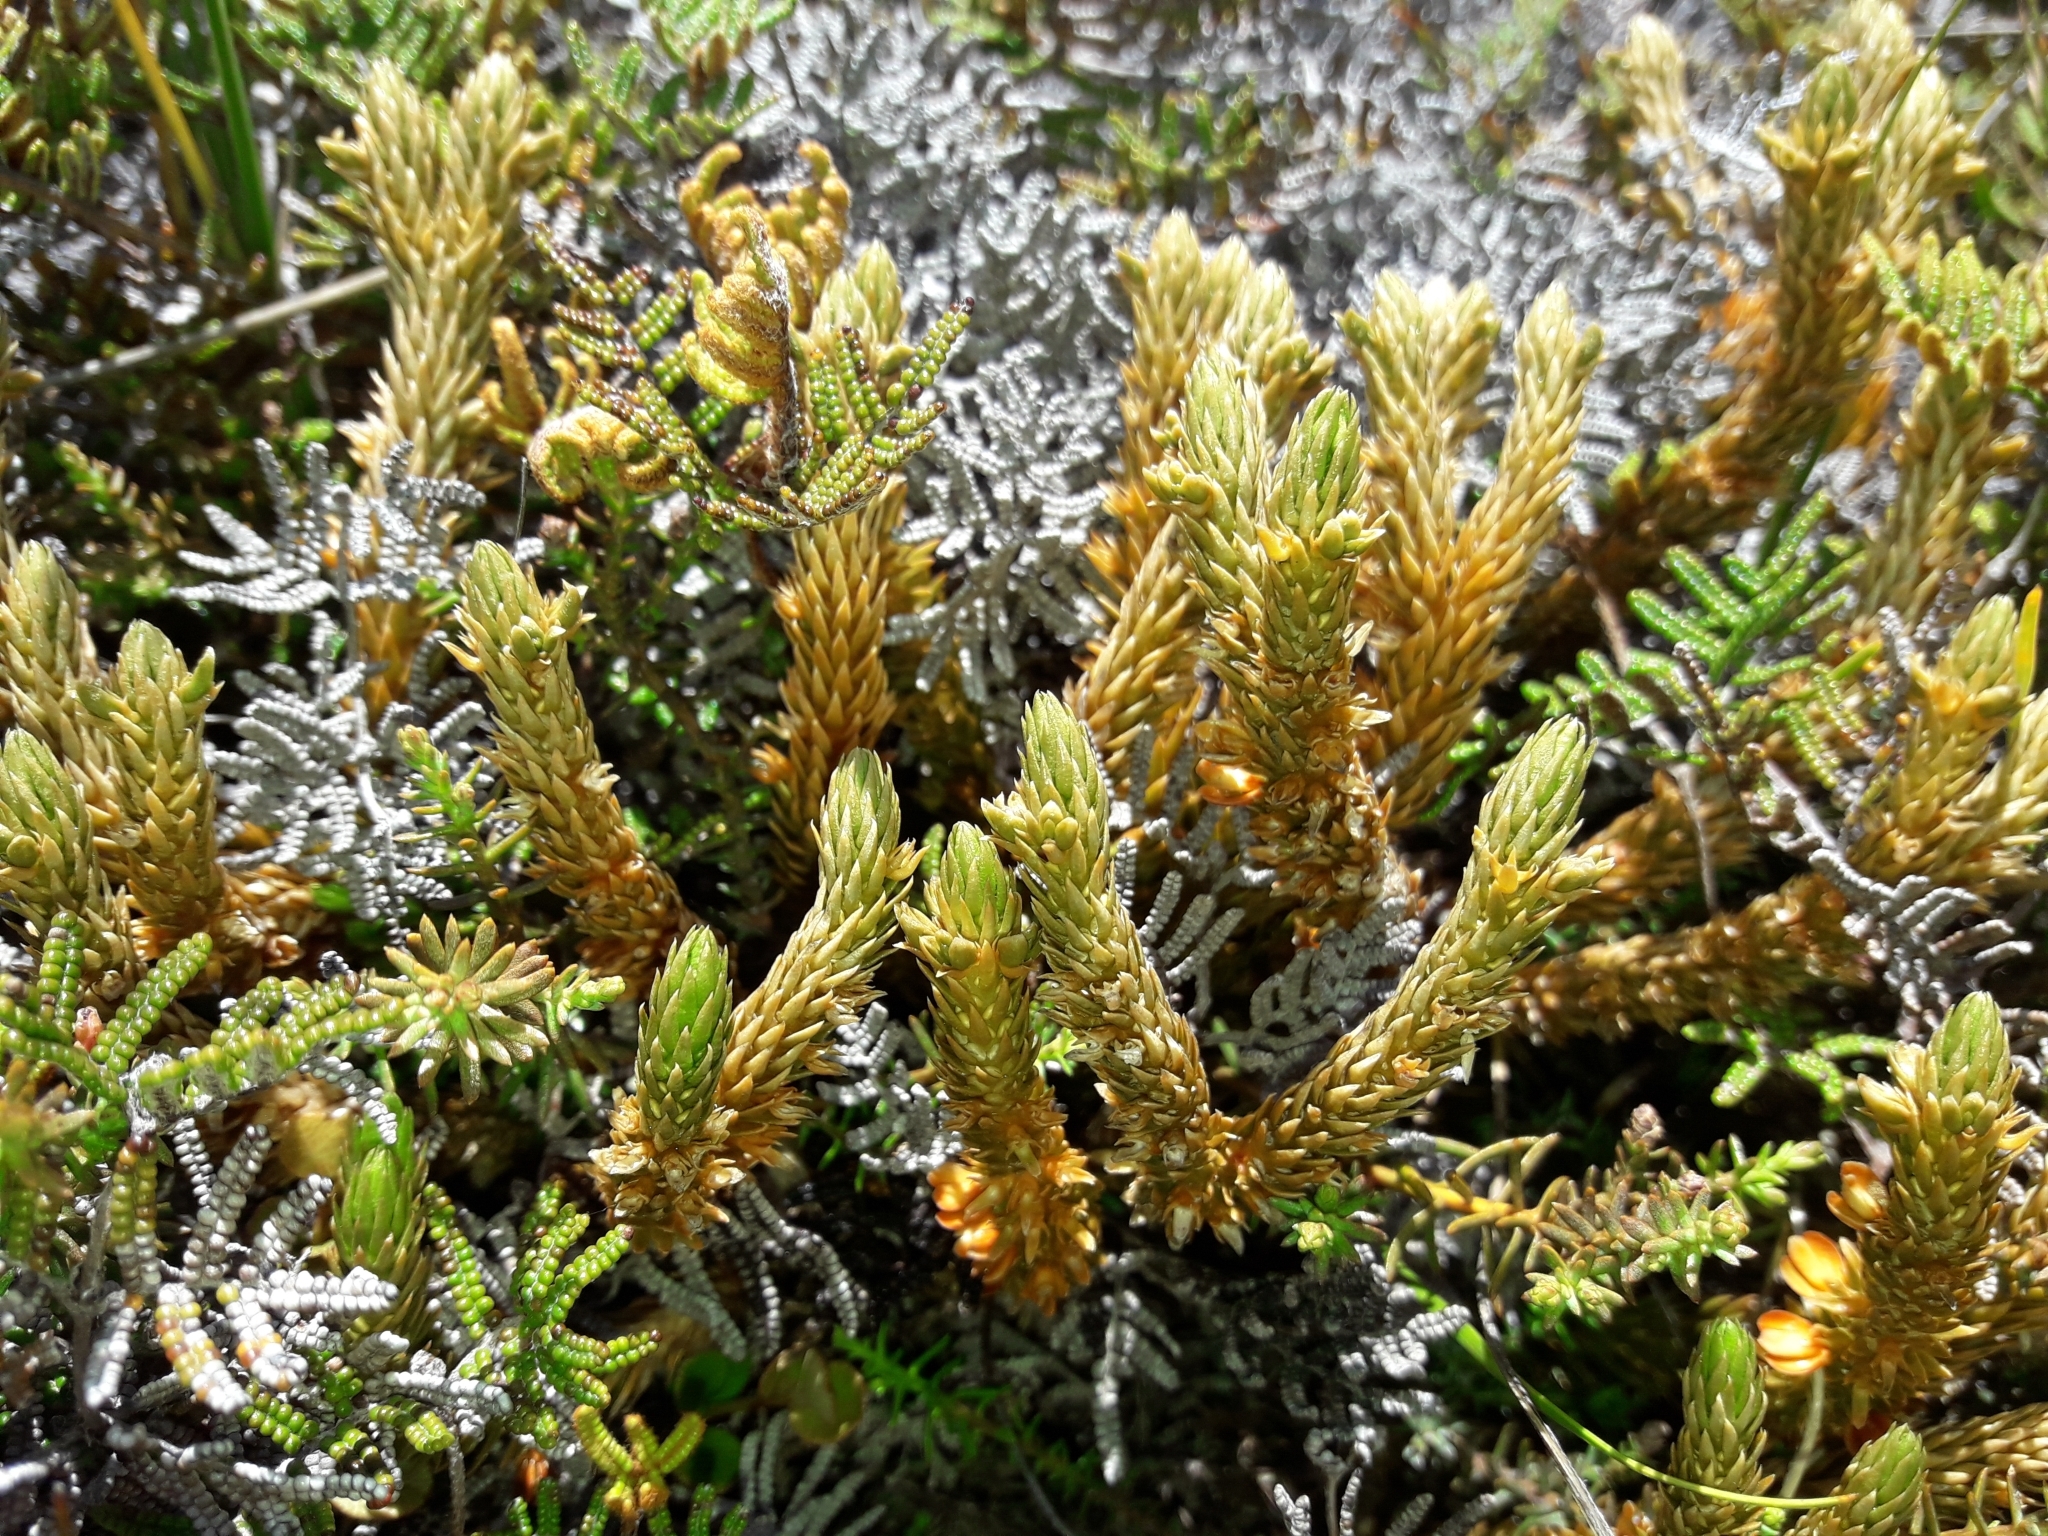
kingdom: Plantae
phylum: Tracheophyta
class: Lycopodiopsida
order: Lycopodiales
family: Lycopodiaceae
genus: Huperzia
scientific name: Huperzia australiana
